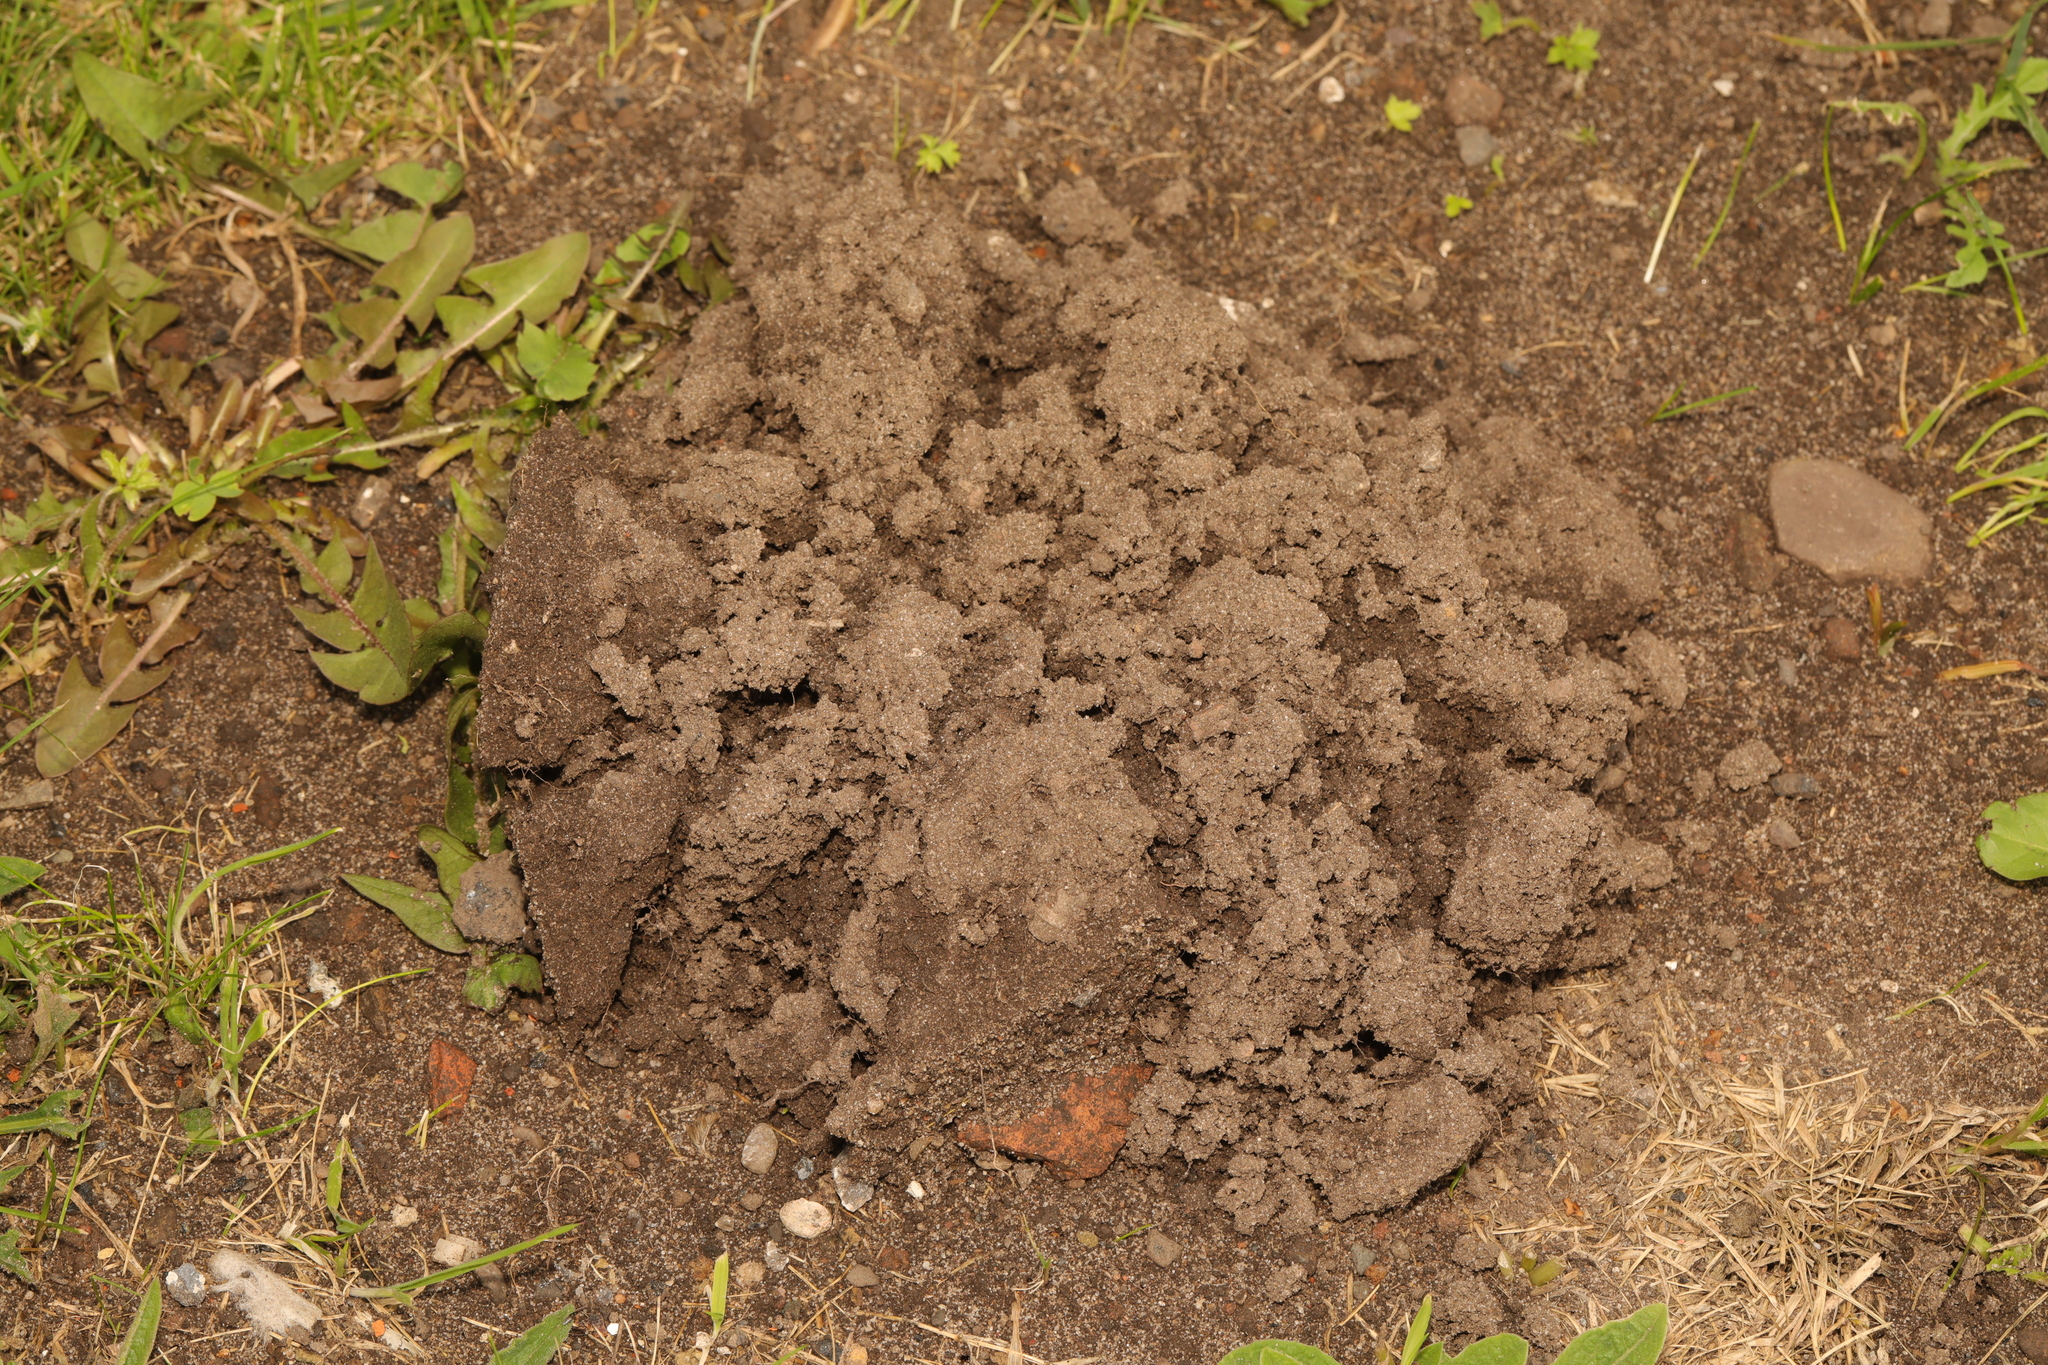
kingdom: Animalia
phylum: Chordata
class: Mammalia
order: Soricomorpha
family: Talpidae
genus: Talpa
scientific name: Talpa europaea
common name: European mole
